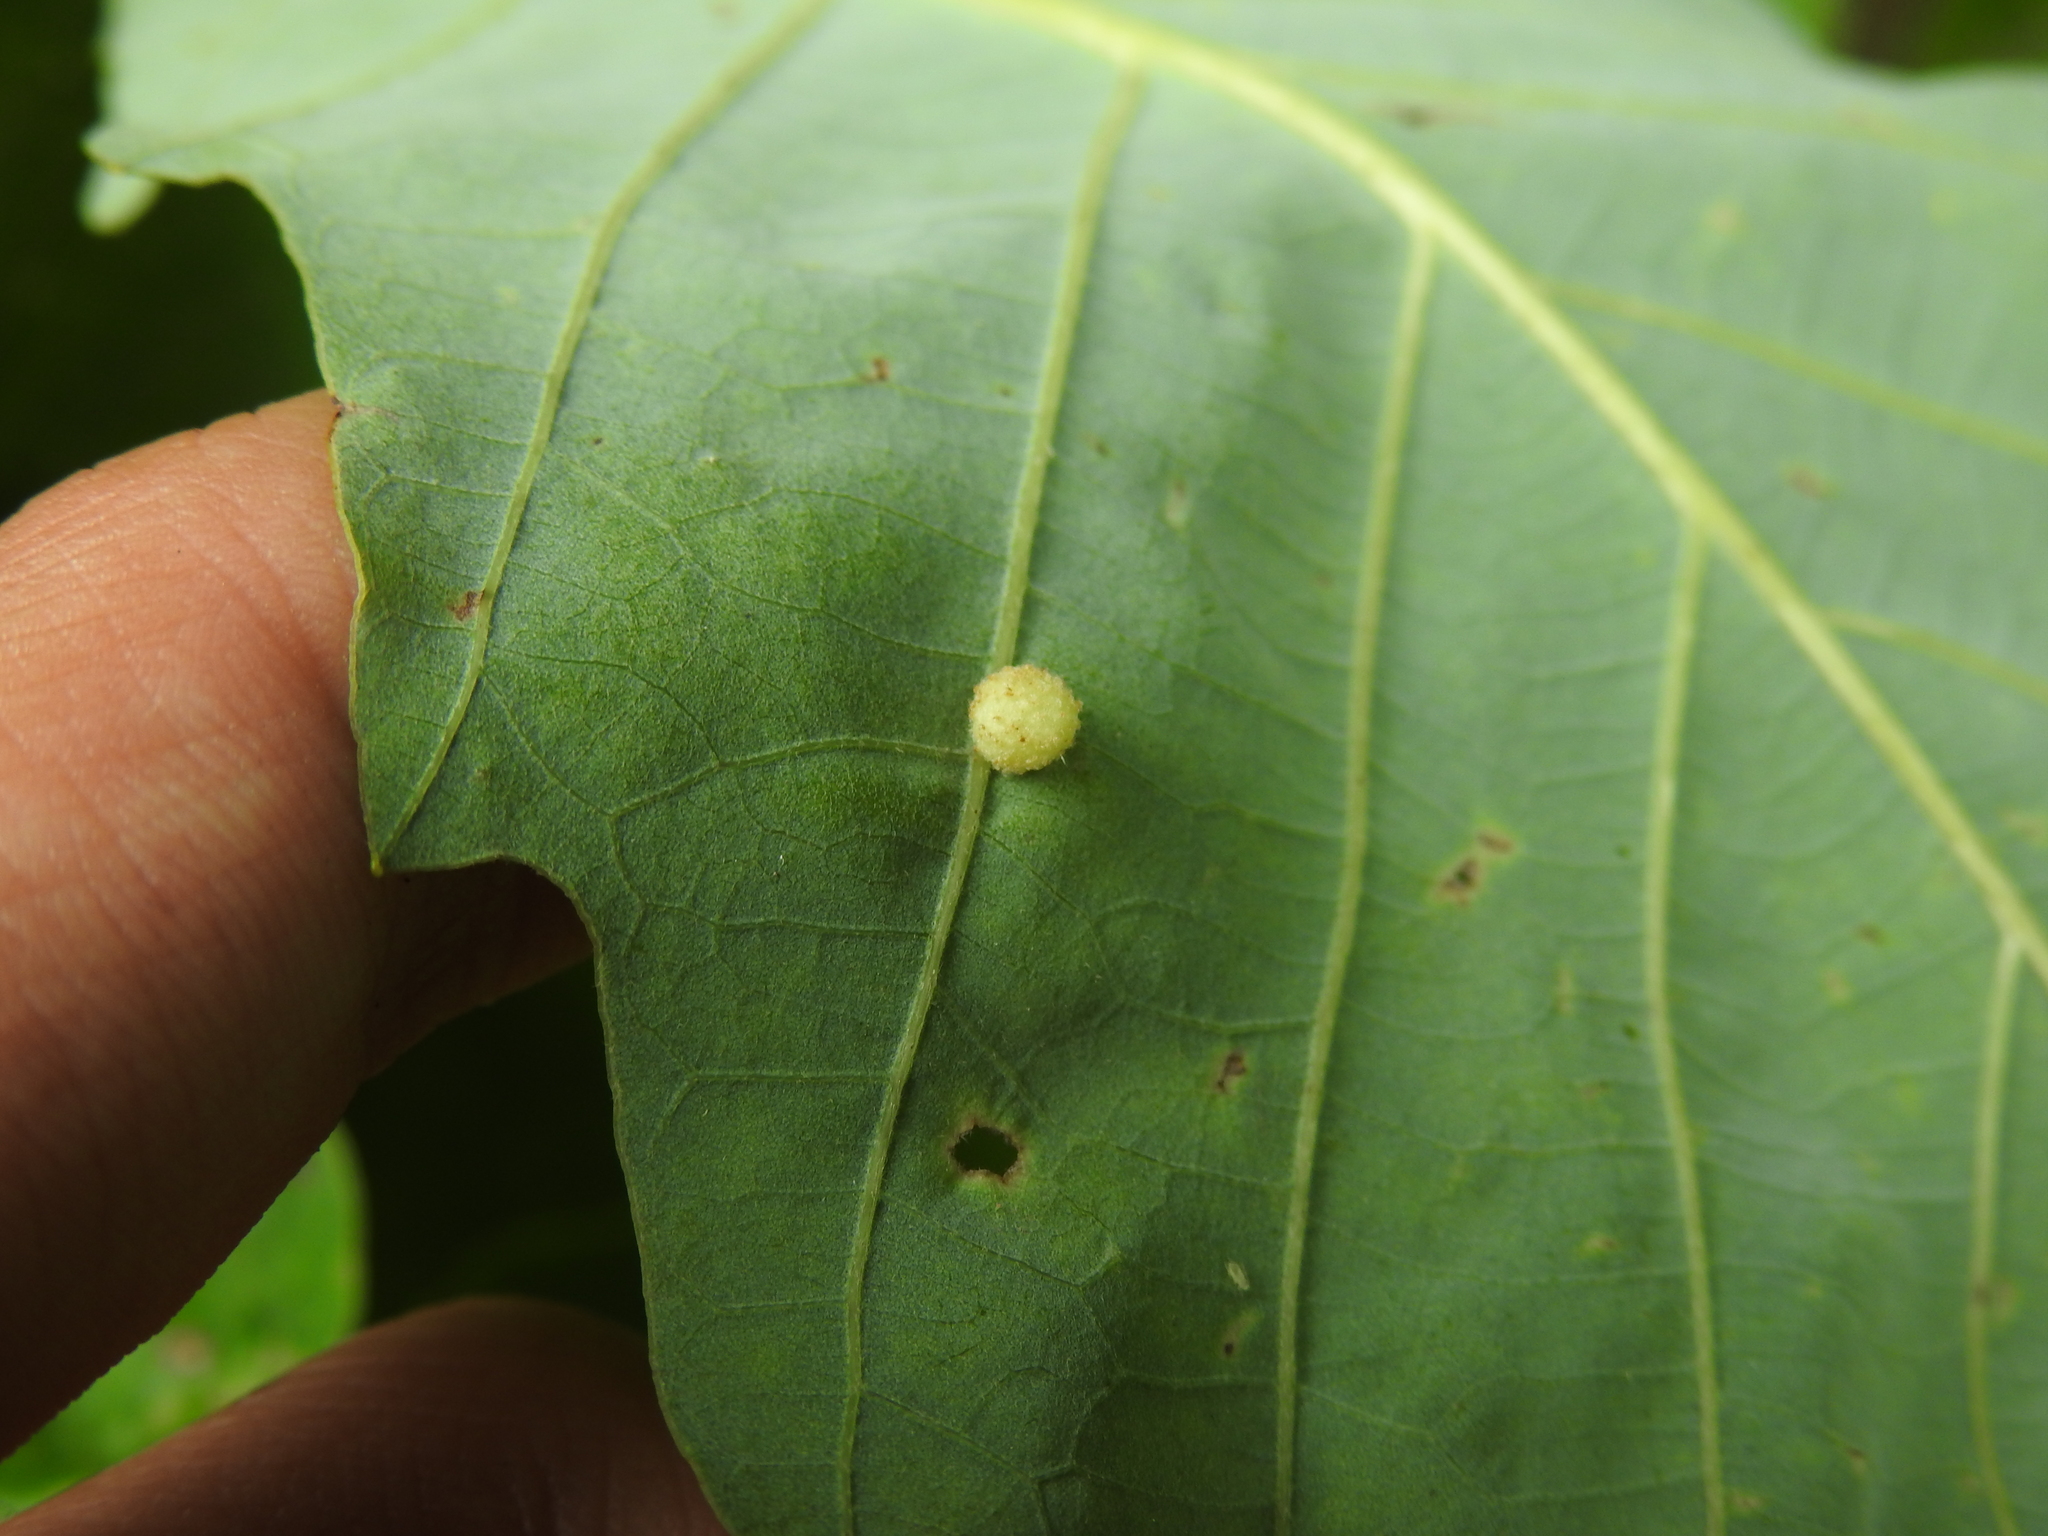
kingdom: Animalia
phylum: Arthropoda
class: Insecta
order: Hymenoptera
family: Cynipidae
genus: Philonix
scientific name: Philonix fulvicollis
